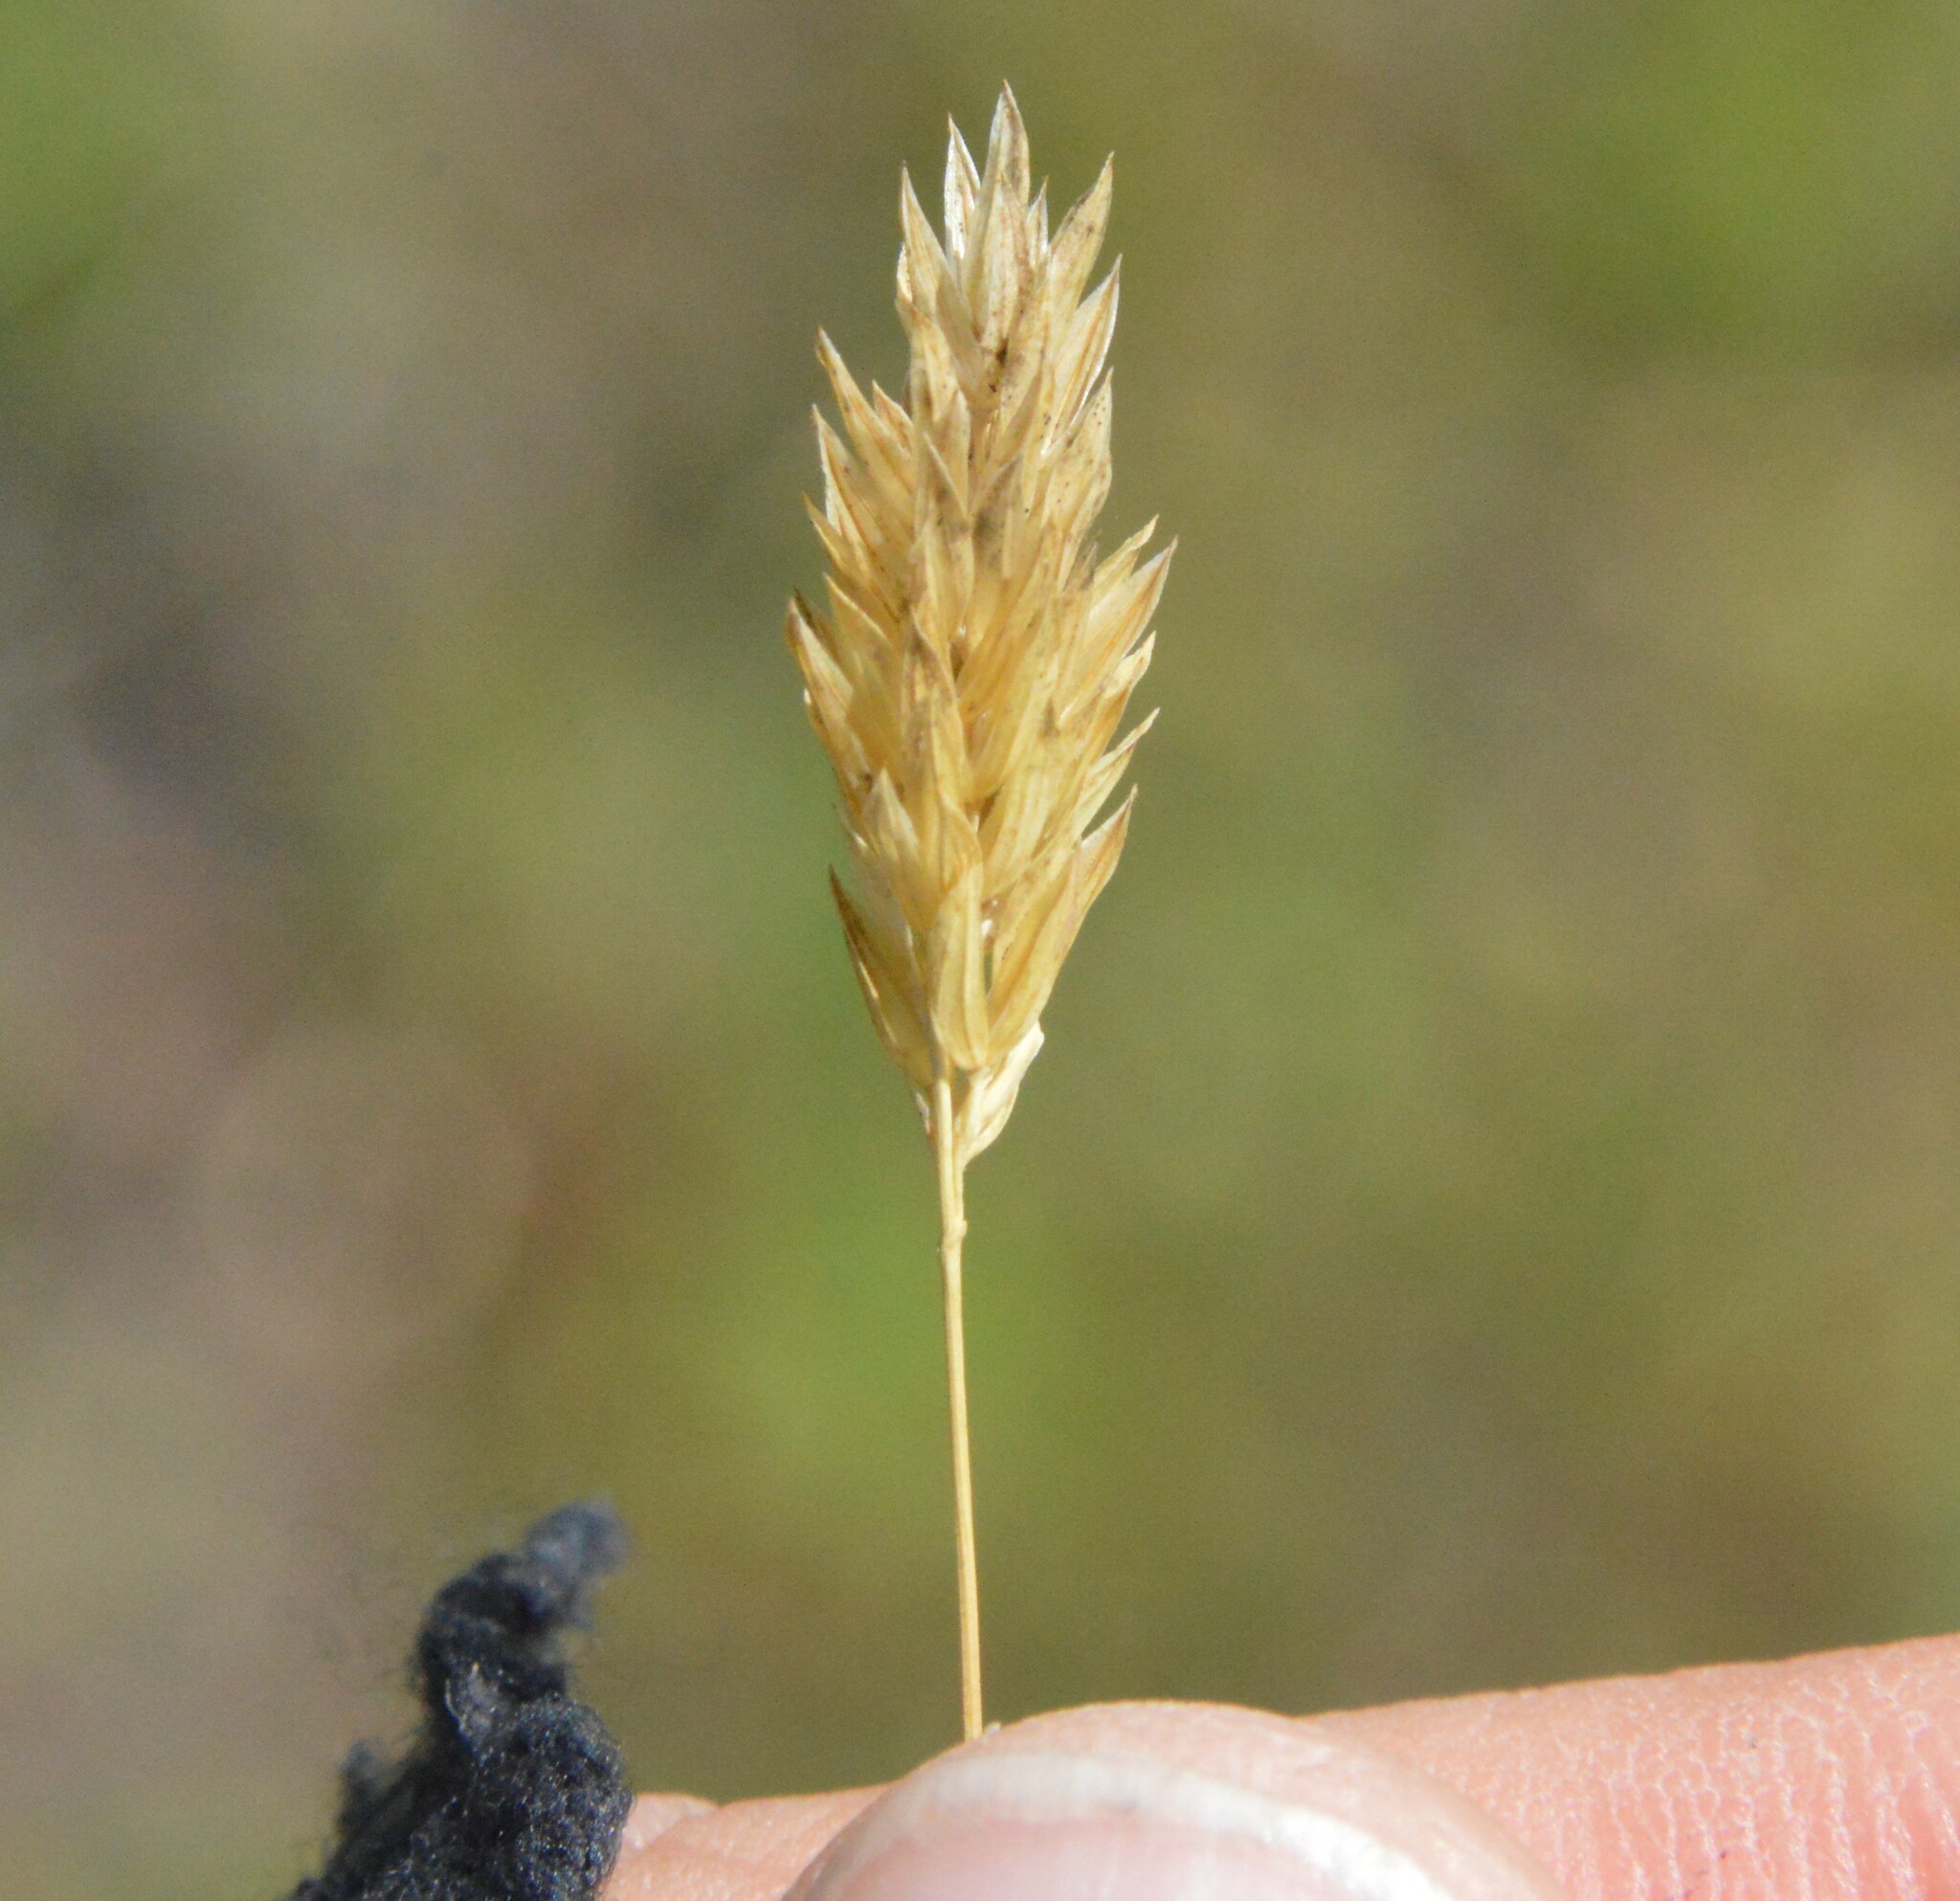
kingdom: Plantae
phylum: Tracheophyta
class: Liliopsida
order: Poales
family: Poaceae
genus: Phalaris
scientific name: Phalaris caroliniana
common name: May grass
